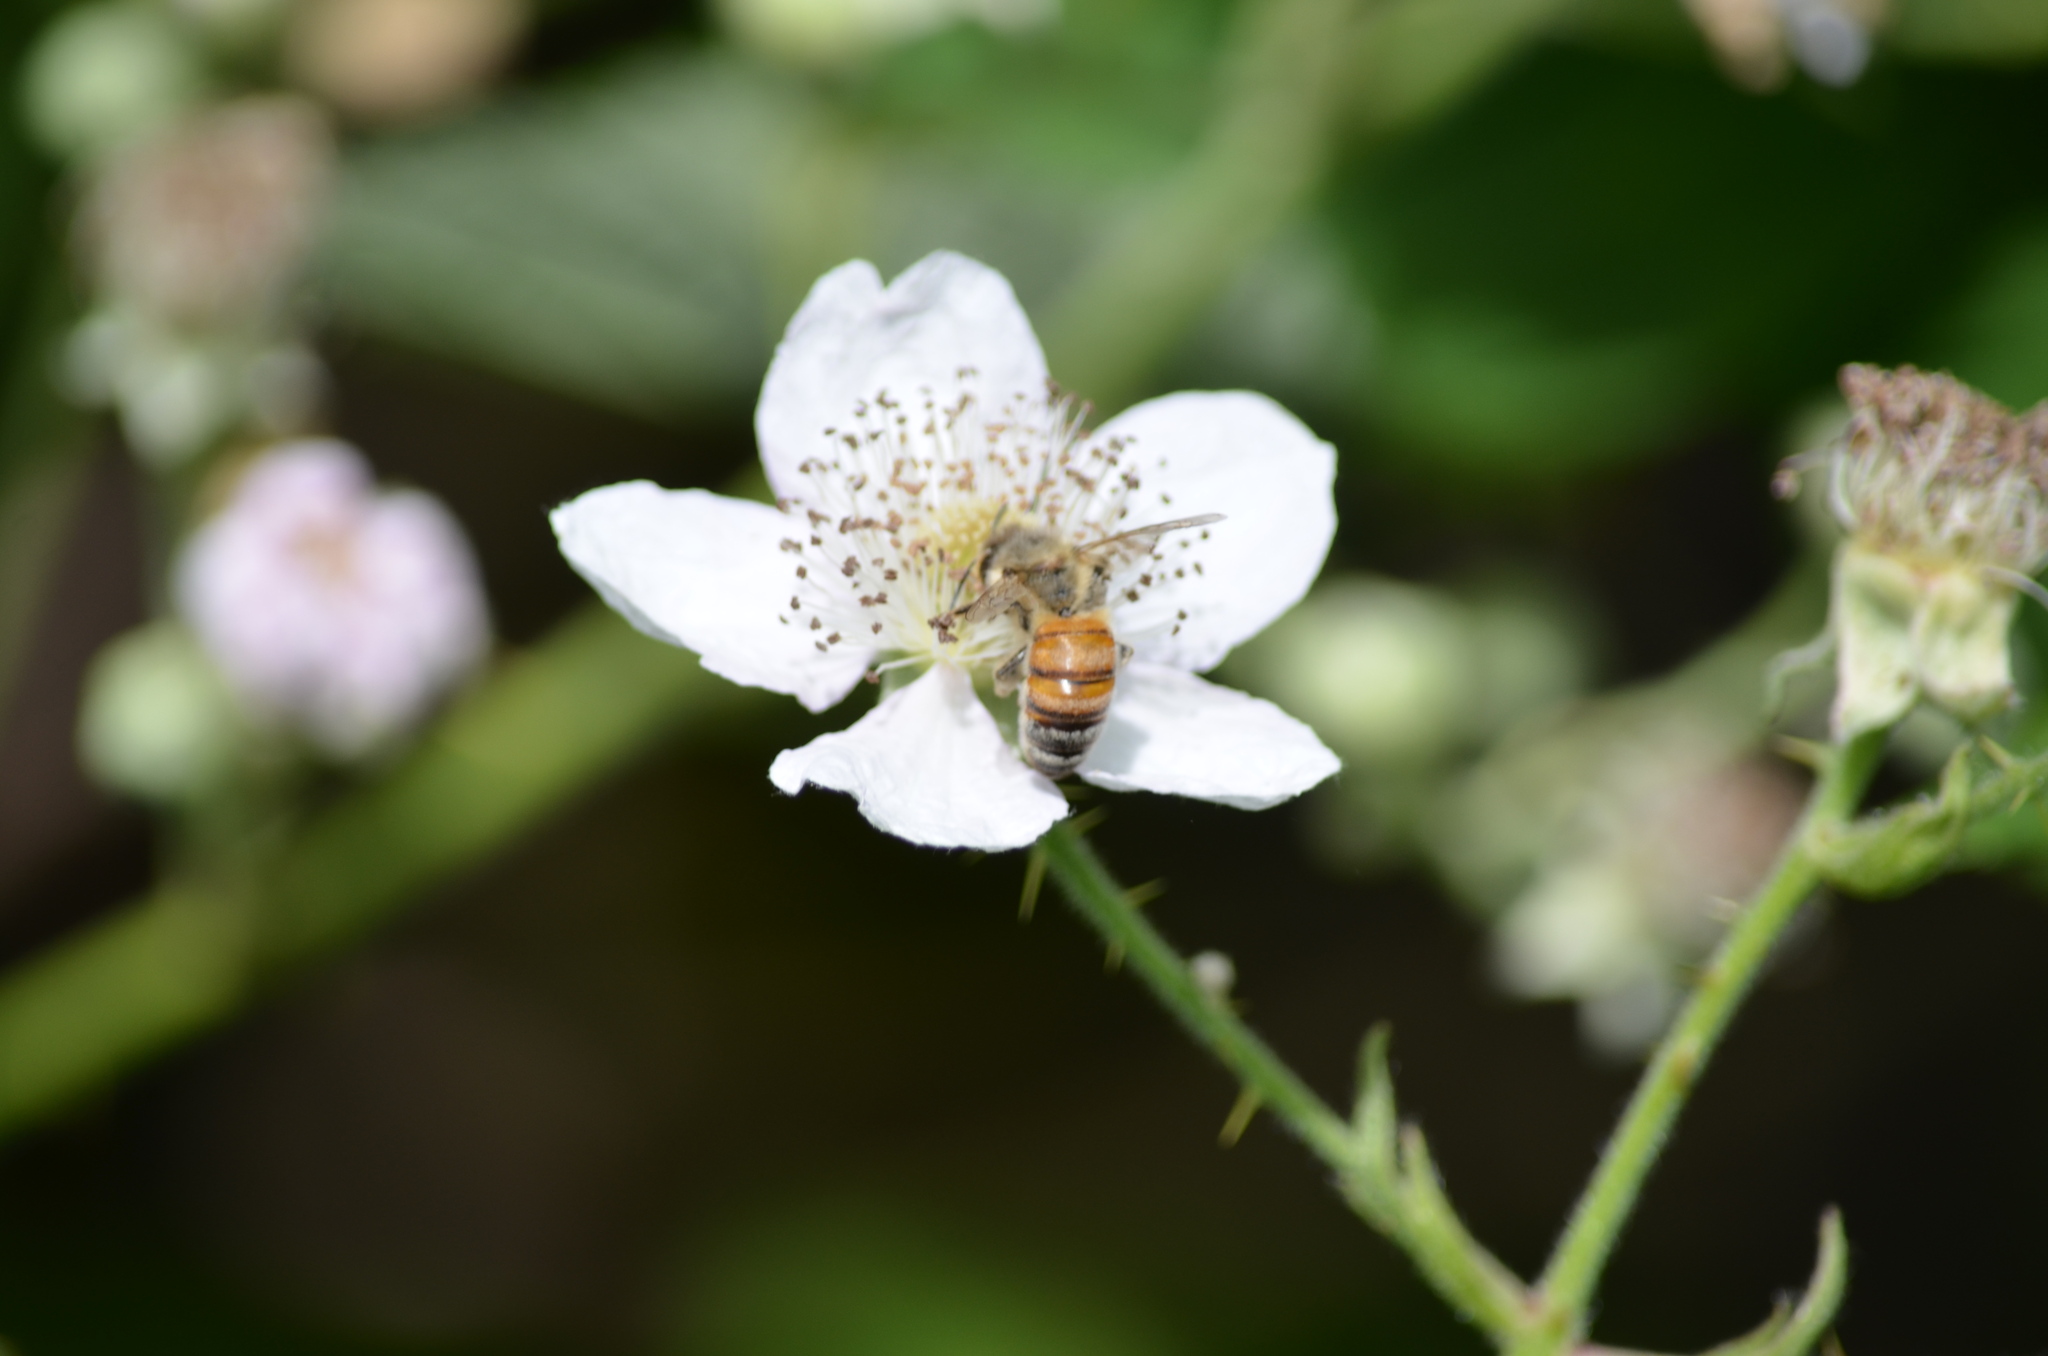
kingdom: Animalia
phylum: Arthropoda
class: Insecta
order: Hymenoptera
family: Apidae
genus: Apis
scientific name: Apis mellifera
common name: Honey bee
